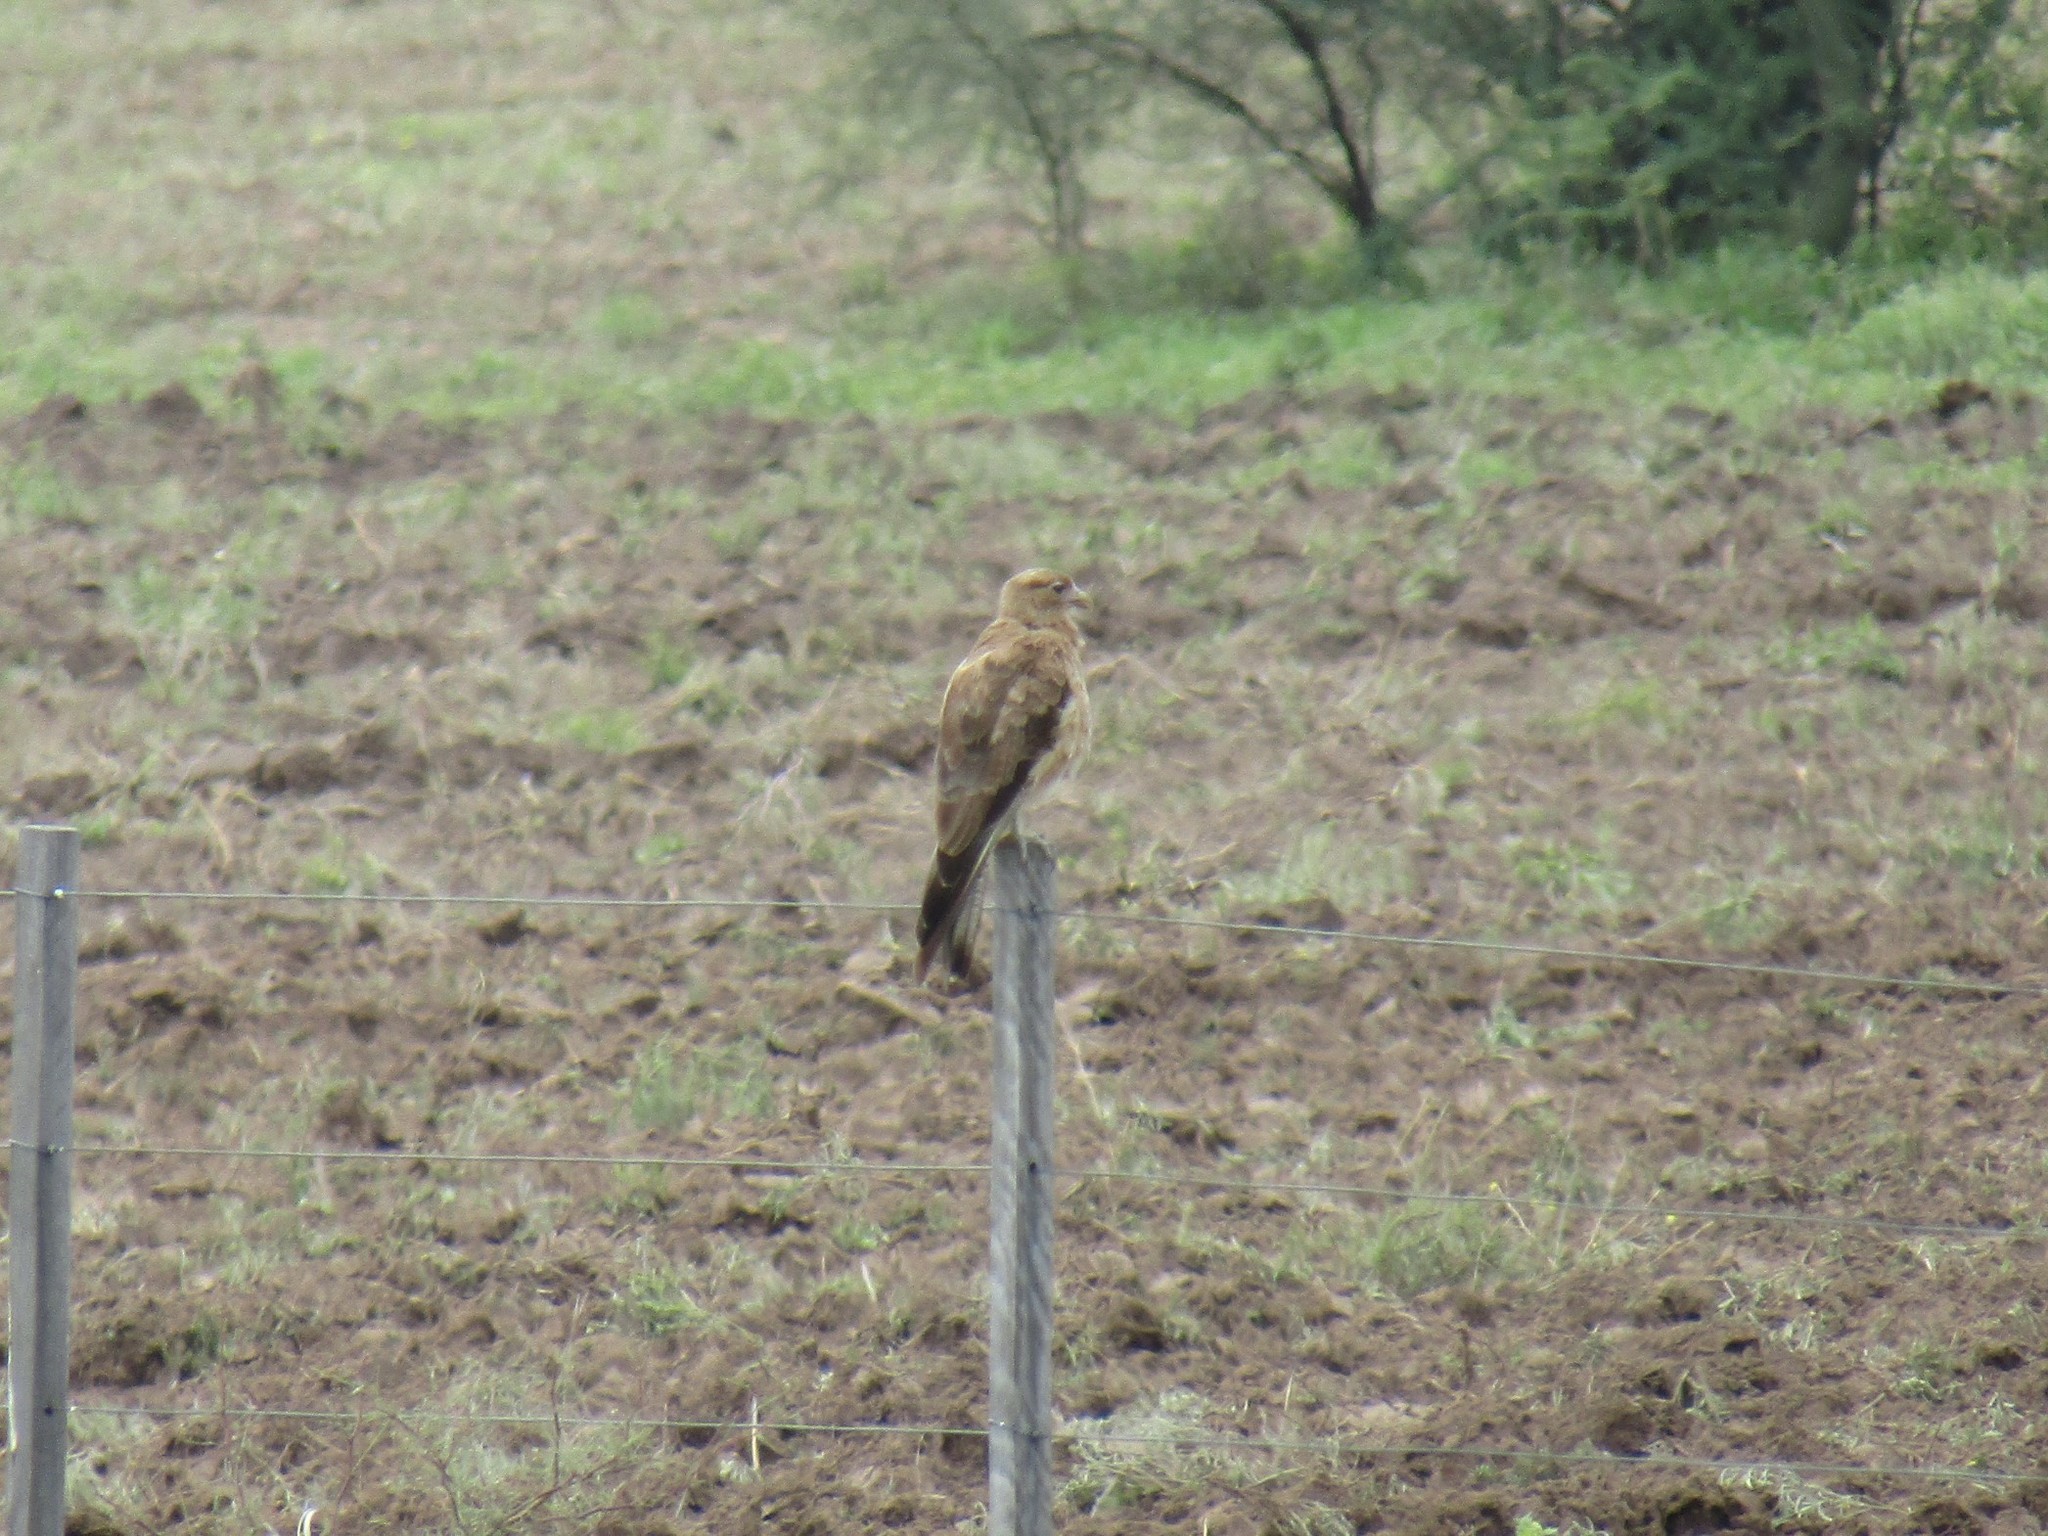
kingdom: Animalia
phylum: Chordata
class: Aves
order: Falconiformes
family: Falconidae
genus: Daptrius
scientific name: Daptrius
